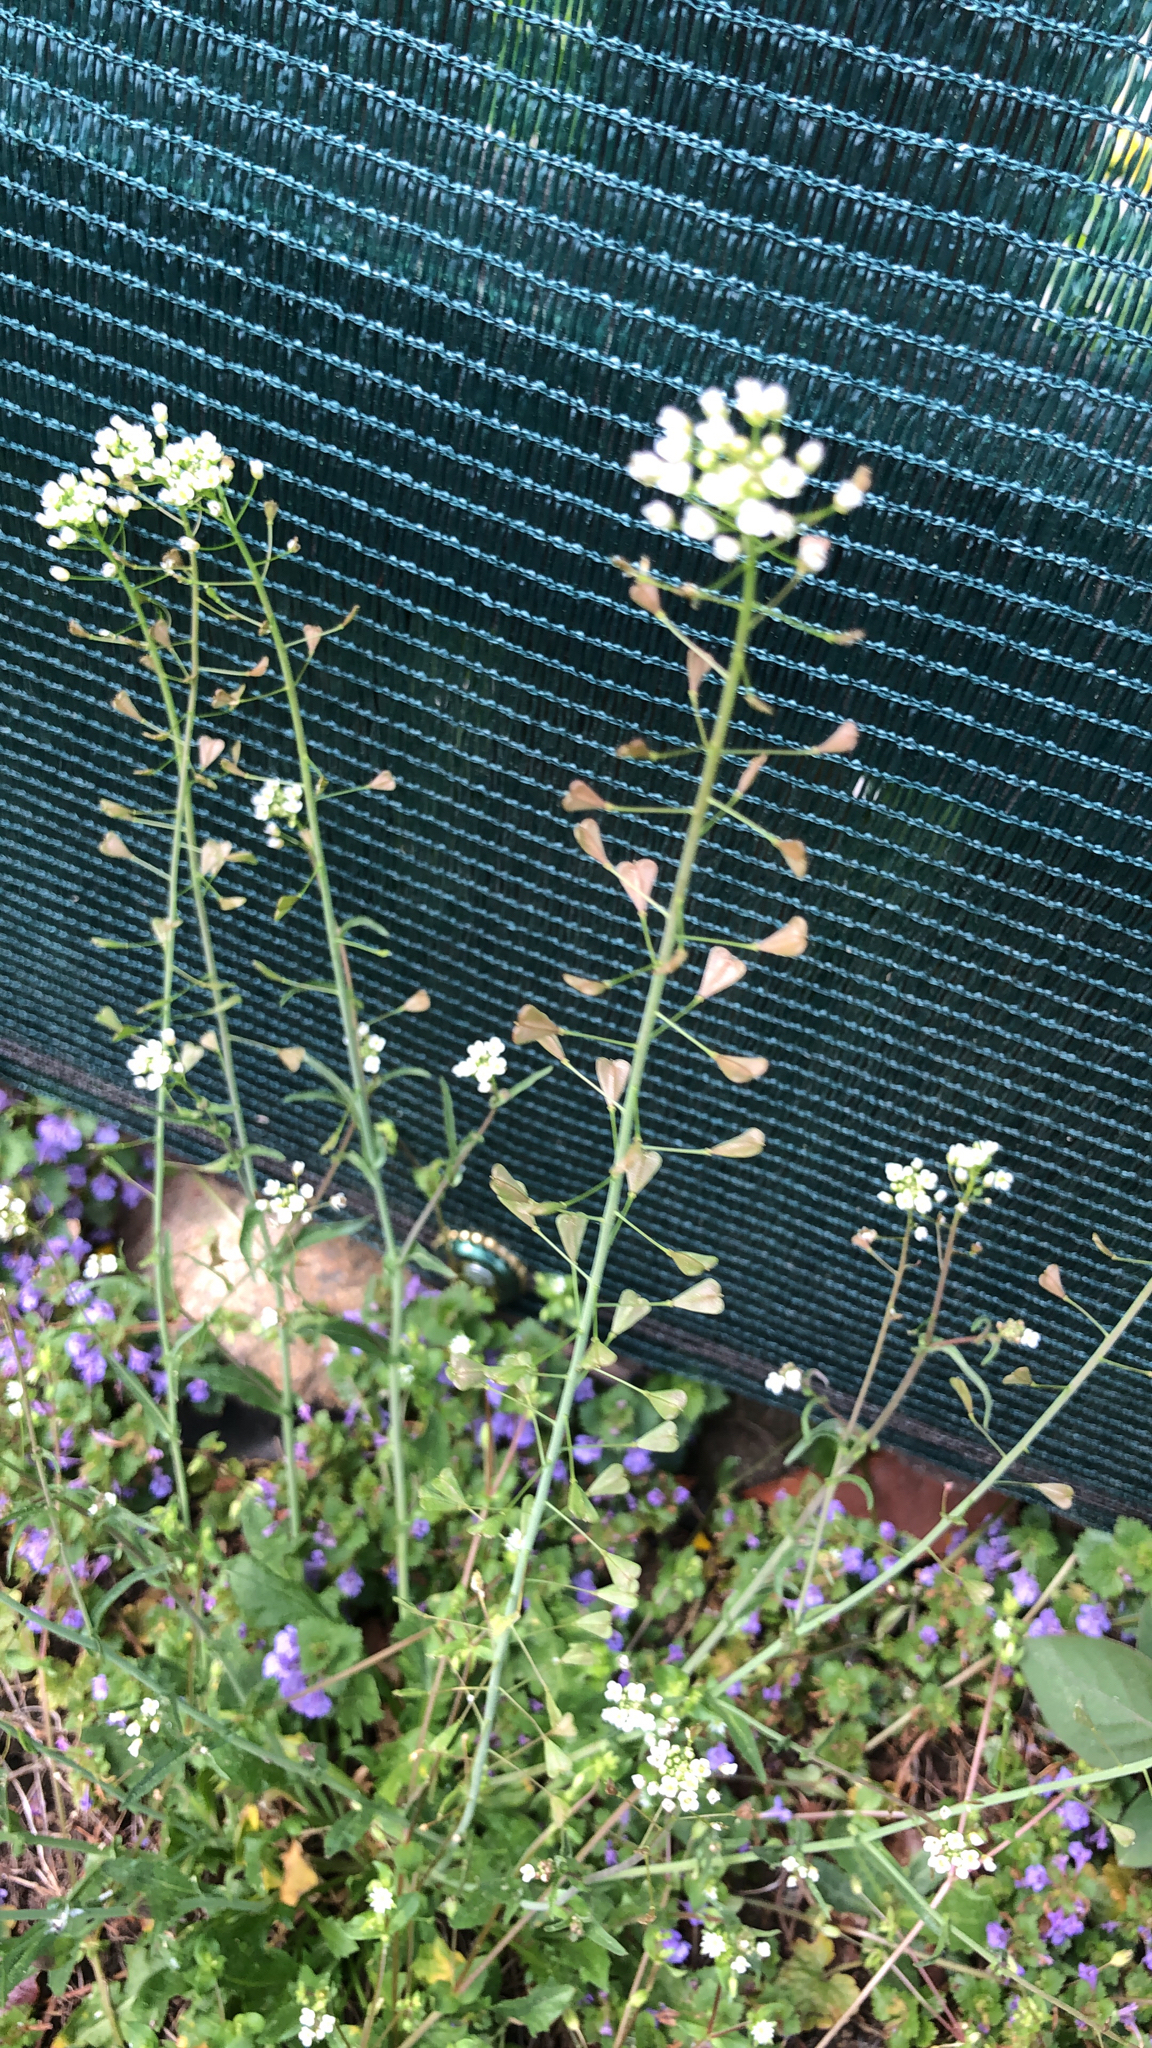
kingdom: Plantae
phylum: Tracheophyta
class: Magnoliopsida
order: Brassicales
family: Brassicaceae
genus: Capsella
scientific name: Capsella bursa-pastoris
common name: Shepherd's purse
